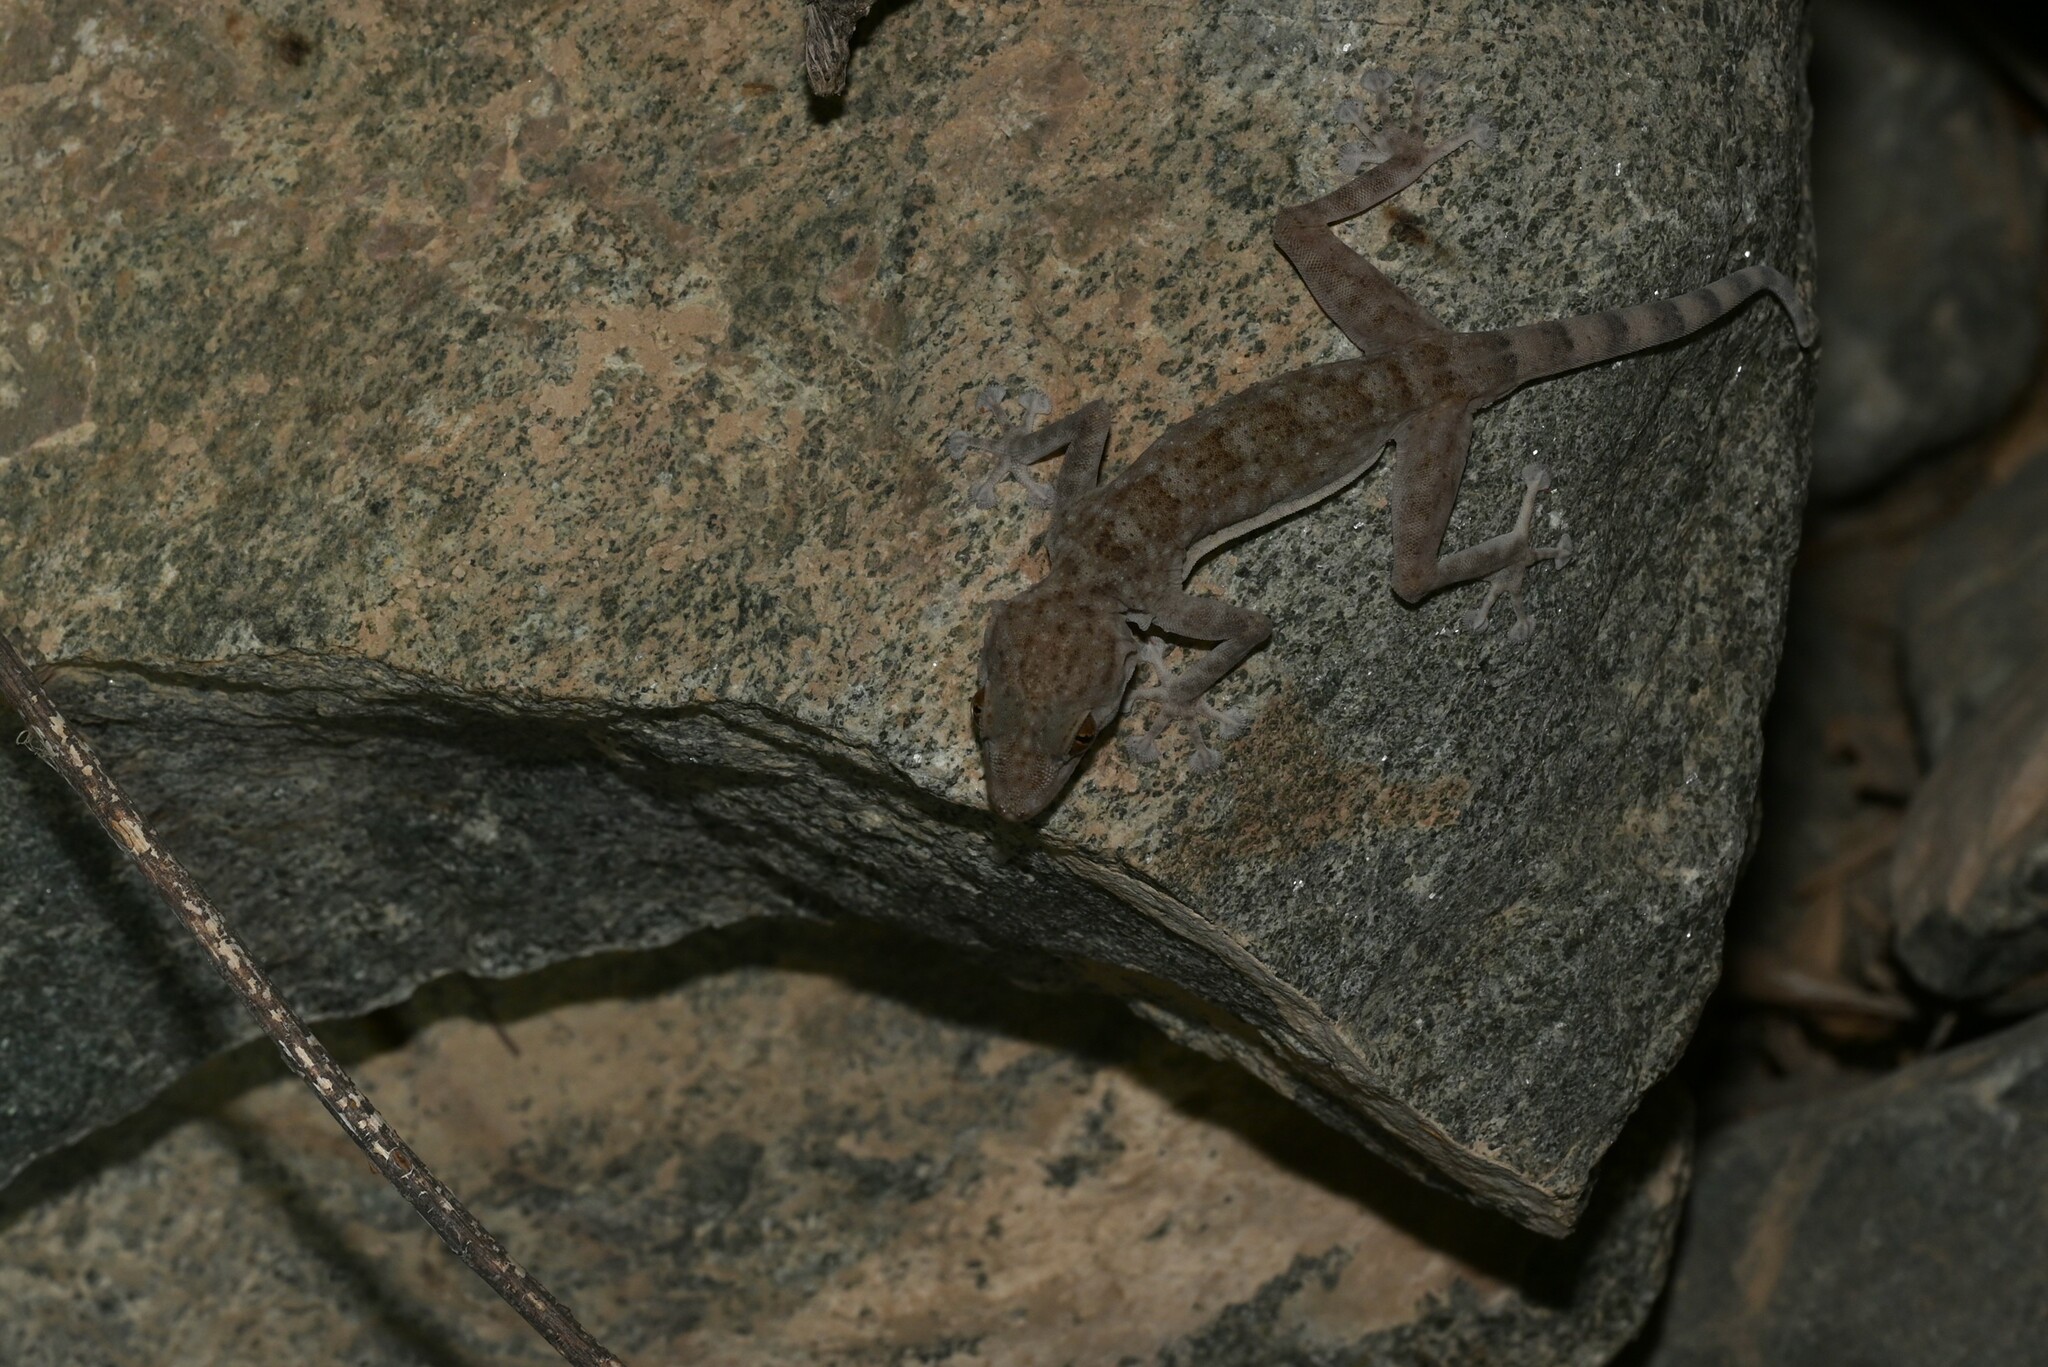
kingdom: Animalia
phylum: Chordata
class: Squamata
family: Phyllodactylidae
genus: Ptyodactylus
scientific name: Ptyodactylus orlovi
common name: Orlov's fan-footed gecko
